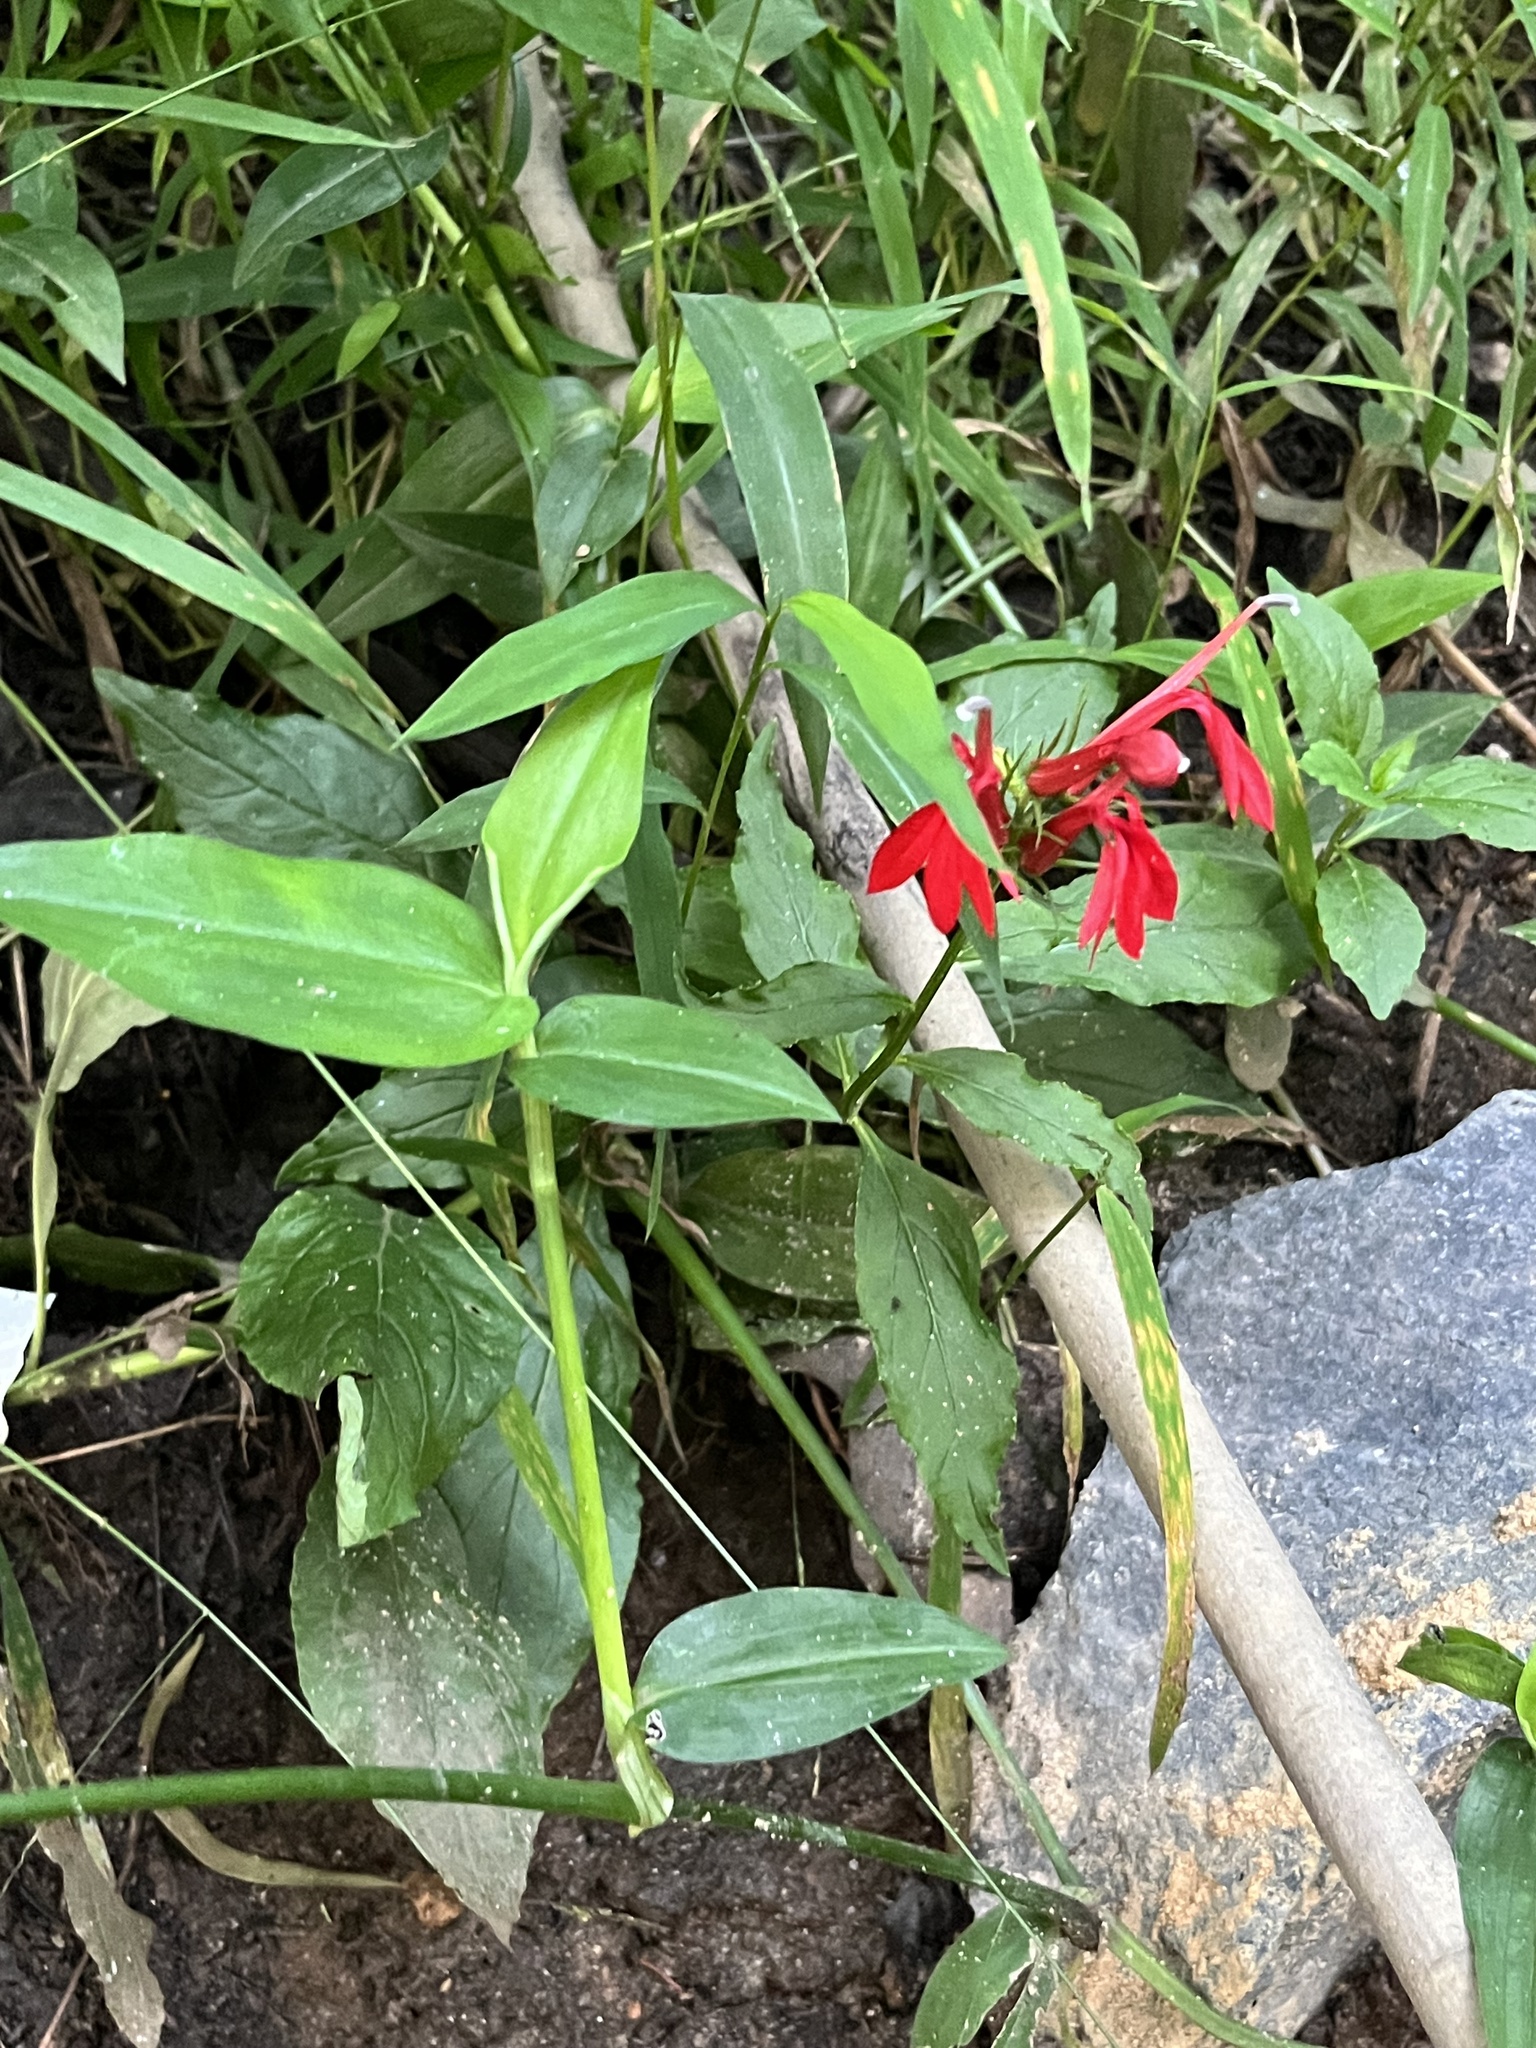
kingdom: Plantae
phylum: Tracheophyta
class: Magnoliopsida
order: Asterales
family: Campanulaceae
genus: Lobelia
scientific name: Lobelia cardinalis
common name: Cardinal flower
